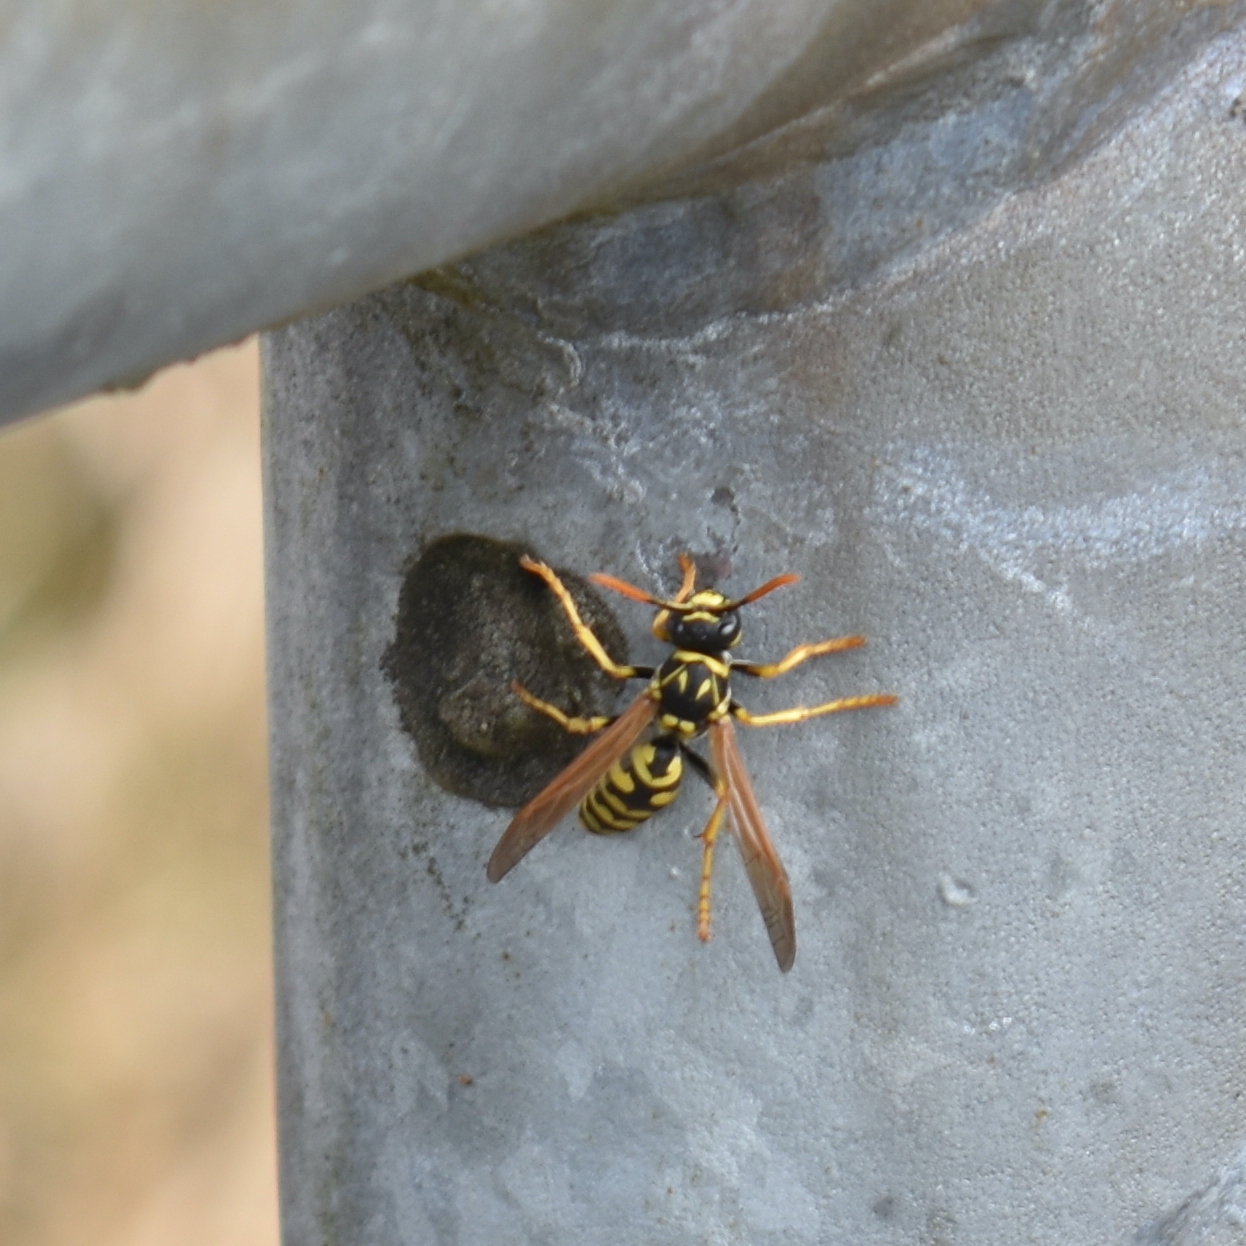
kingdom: Animalia
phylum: Arthropoda
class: Insecta
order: Hymenoptera
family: Eumenidae
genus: Polistes
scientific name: Polistes dominula
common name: Paper wasp
